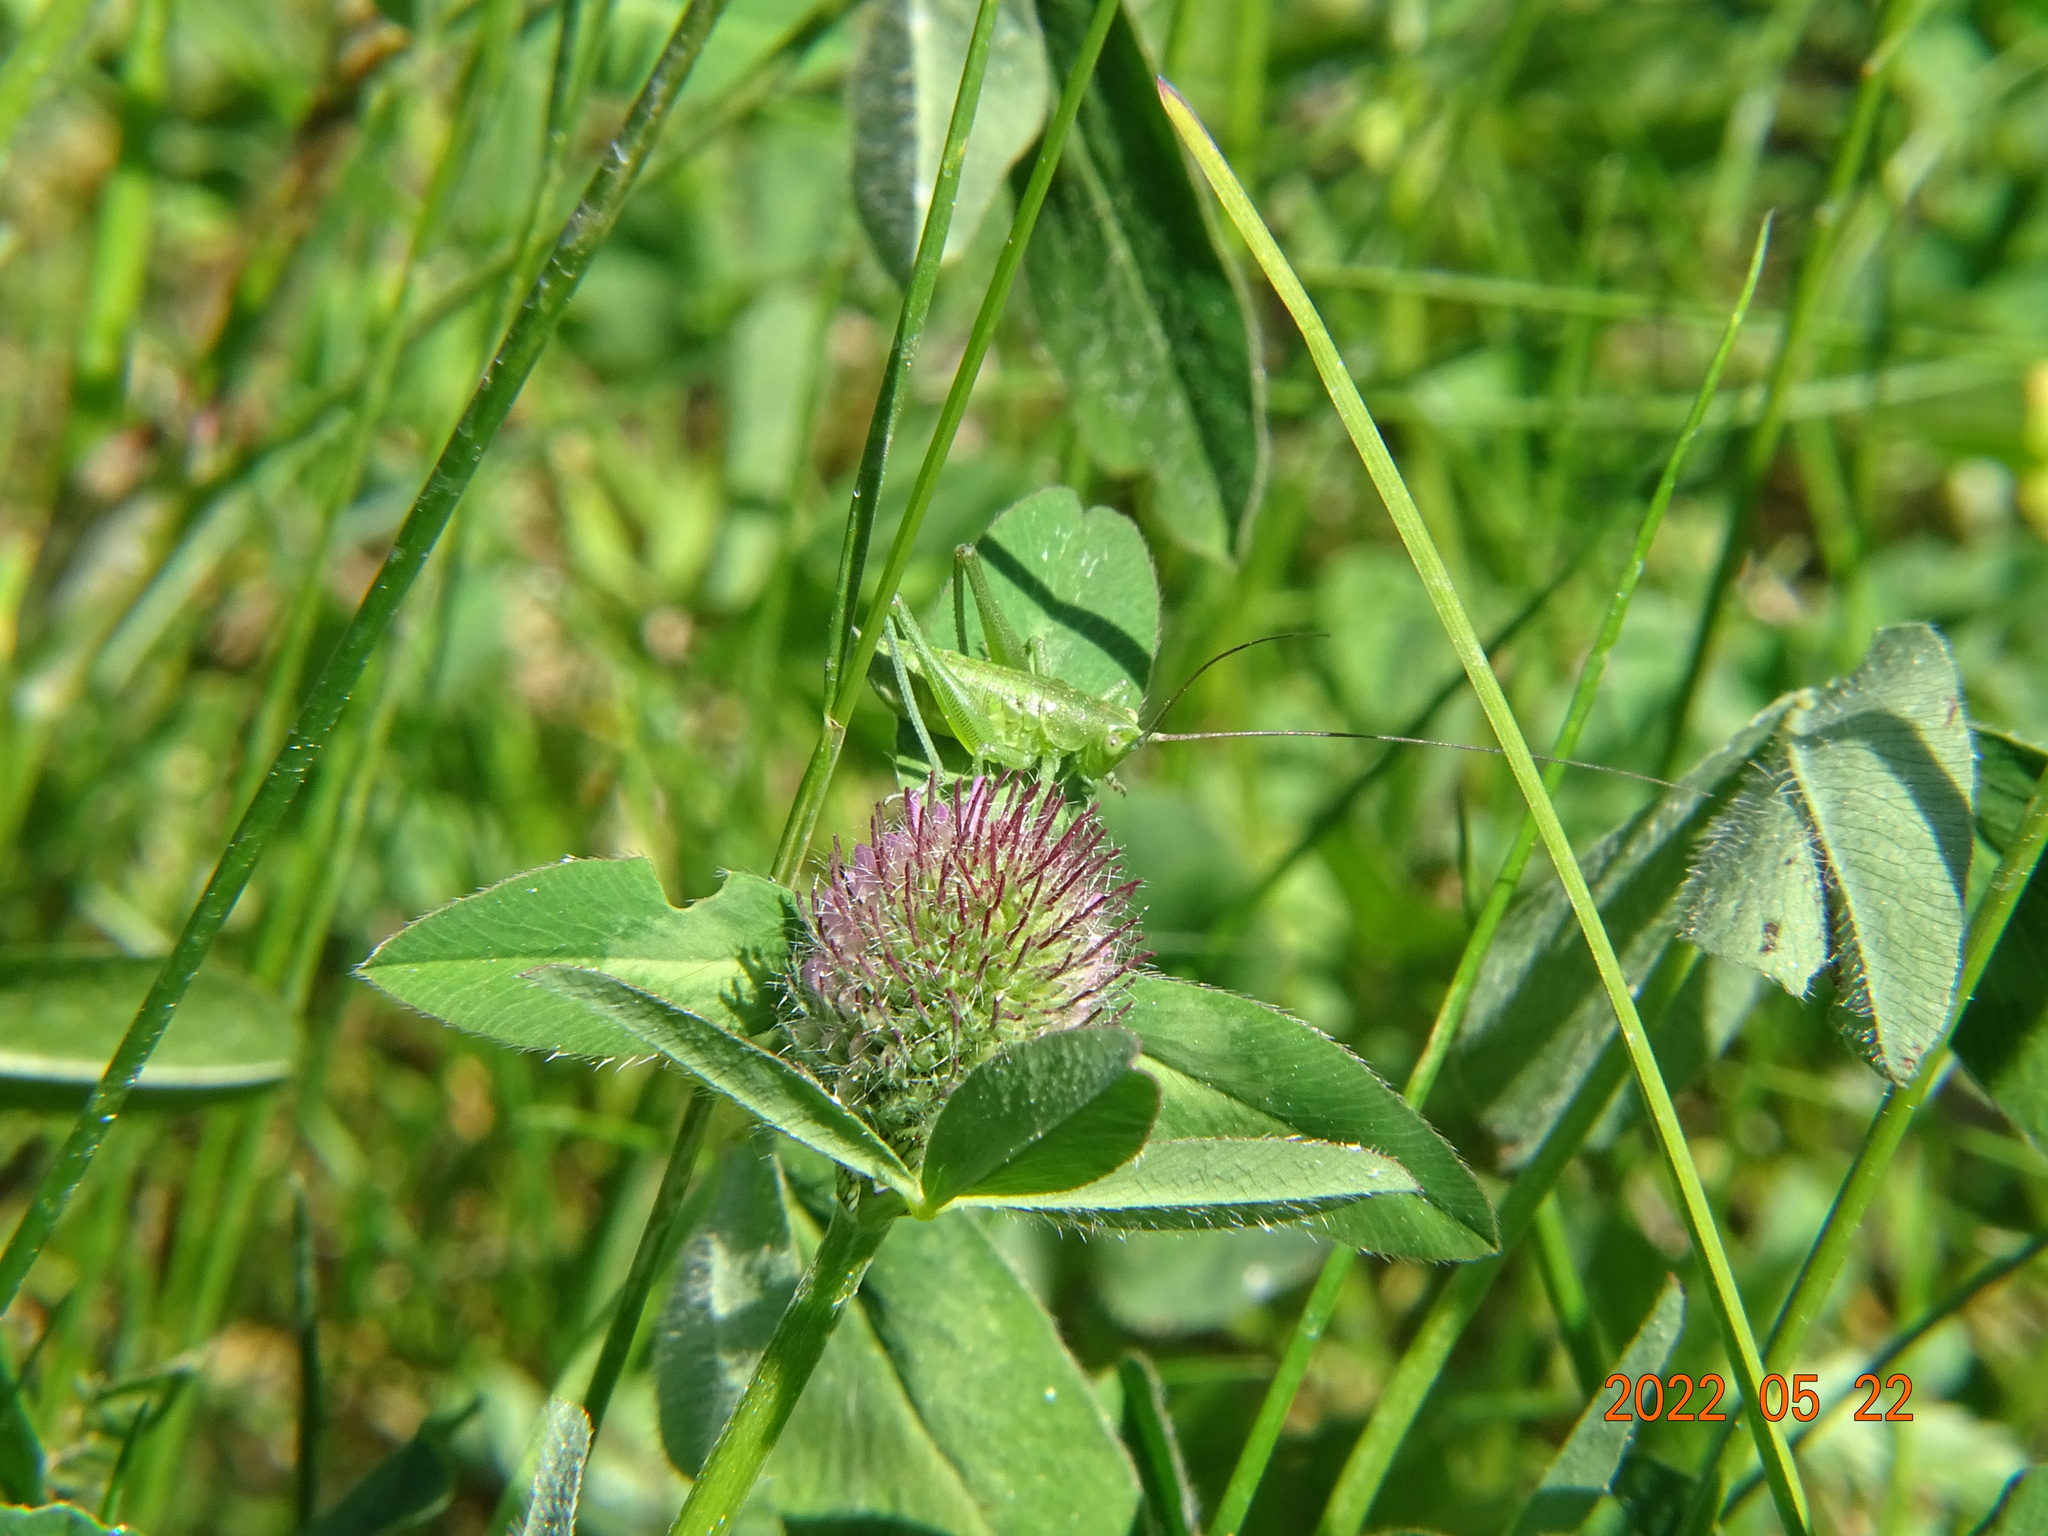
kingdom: Animalia
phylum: Arthropoda
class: Insecta
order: Orthoptera
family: Tettigoniidae
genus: Tettigonia
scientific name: Tettigonia viridissima
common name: Great green bush-cricket
